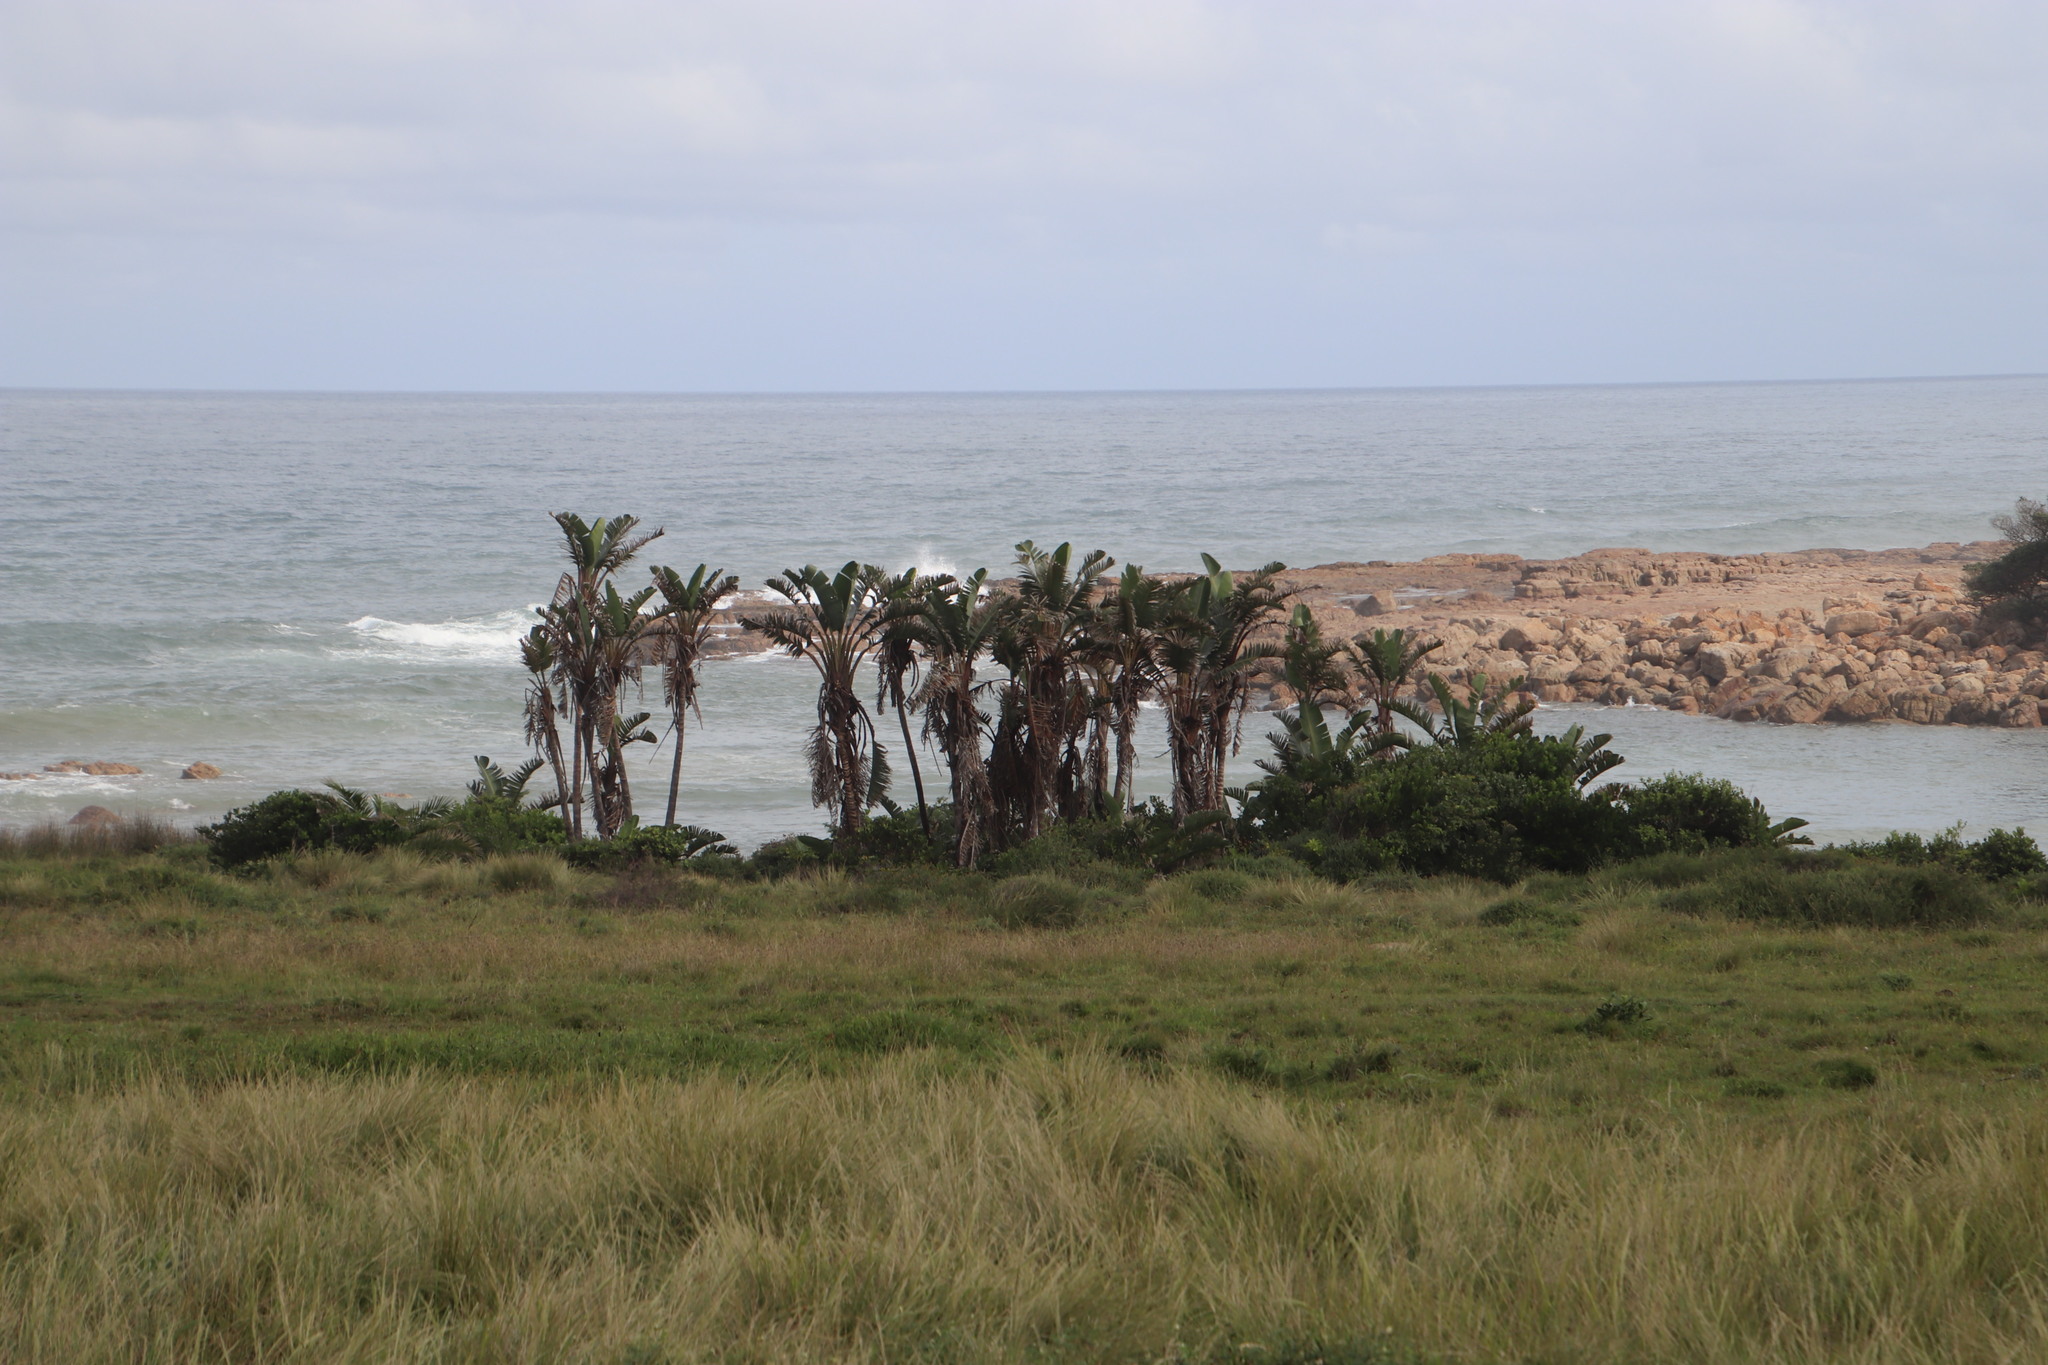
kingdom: Plantae
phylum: Tracheophyta
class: Liliopsida
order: Zingiberales
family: Strelitziaceae
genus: Strelitzia
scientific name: Strelitzia nicolai
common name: Bird-of-paradise tree
